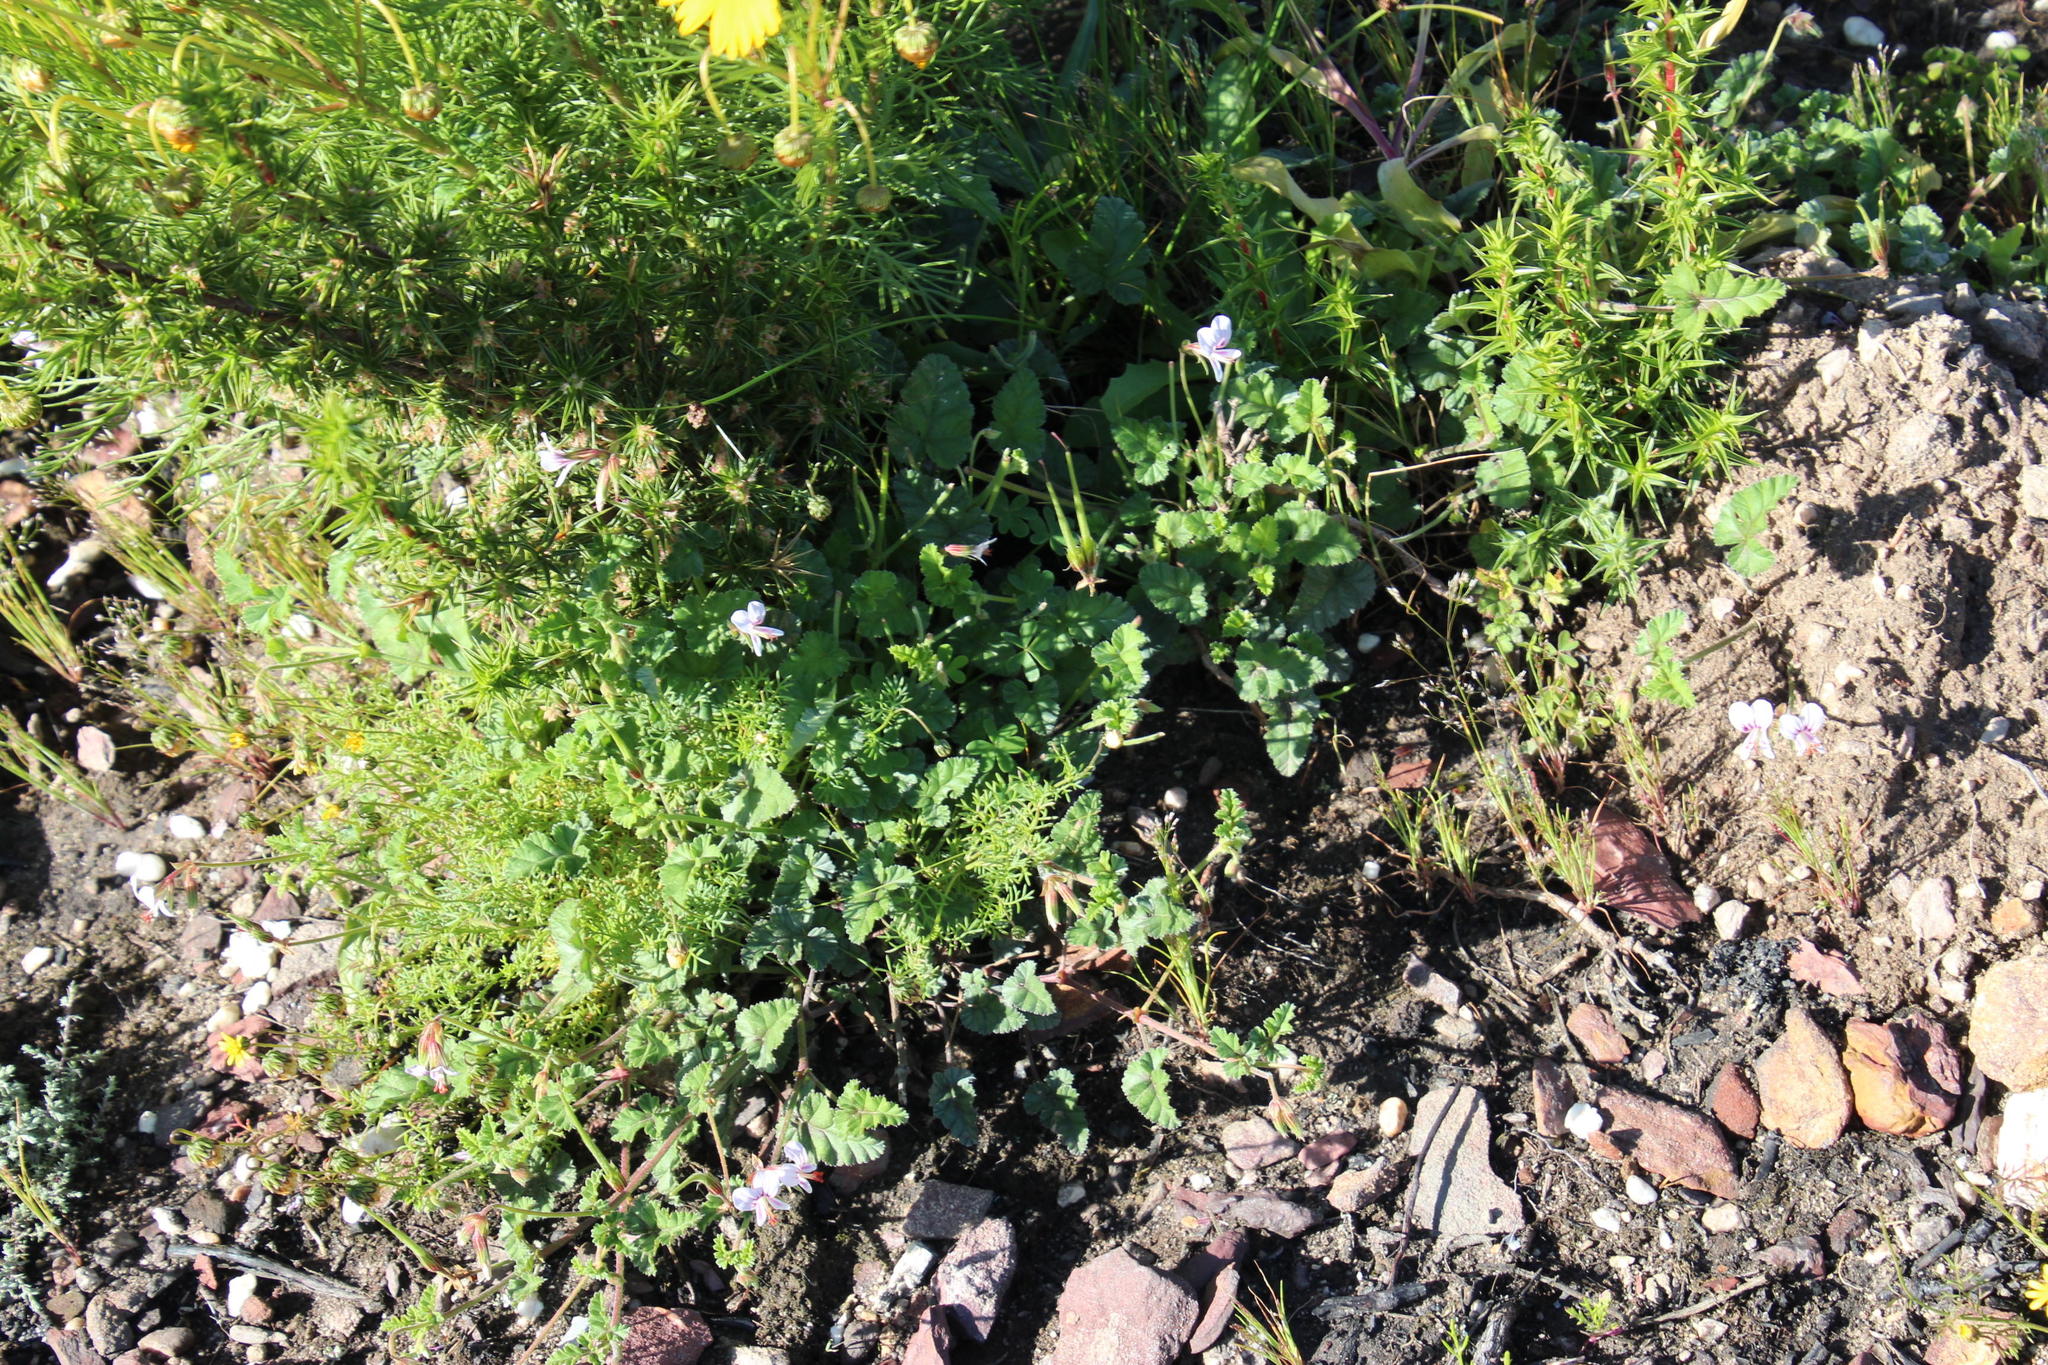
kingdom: Plantae
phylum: Tracheophyta
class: Magnoliopsida
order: Geraniales
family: Geraniaceae
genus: Pelargonium
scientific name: Pelargonium candicans
